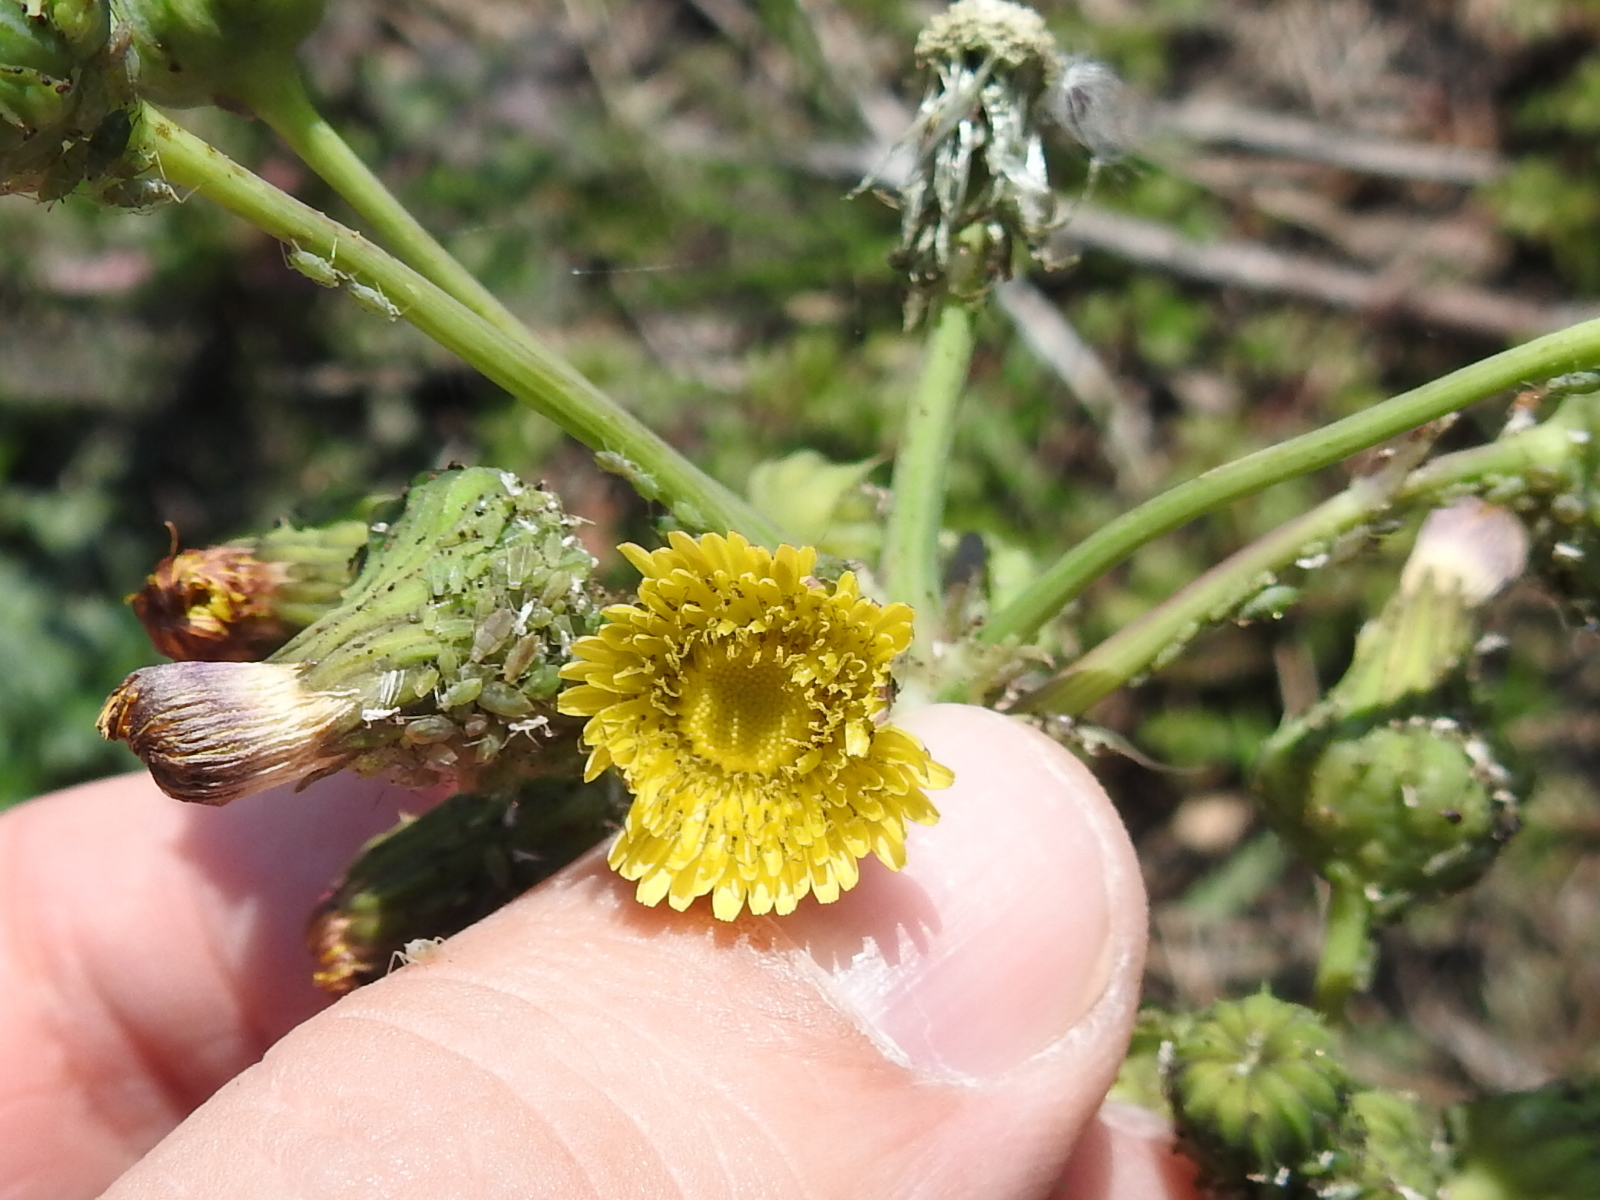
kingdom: Plantae
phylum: Tracheophyta
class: Magnoliopsida
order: Asterales
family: Asteraceae
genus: Sonchus
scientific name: Sonchus asper
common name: Prickly sow-thistle
